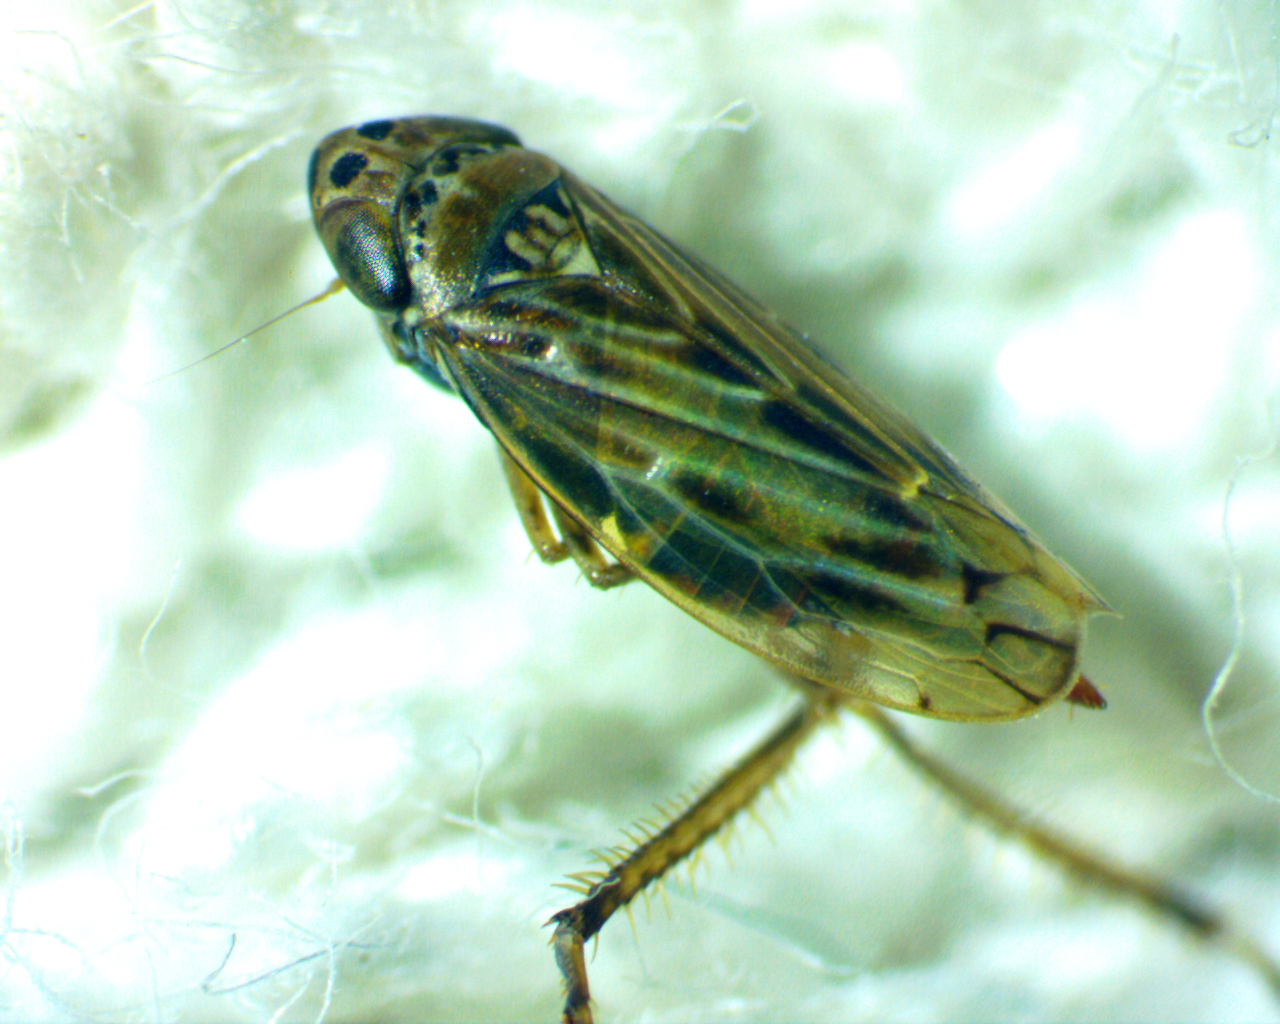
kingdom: Animalia
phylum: Arthropoda
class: Insecta
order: Hemiptera
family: Cicadellidae
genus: Stirellus
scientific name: Stirellus bicolor
